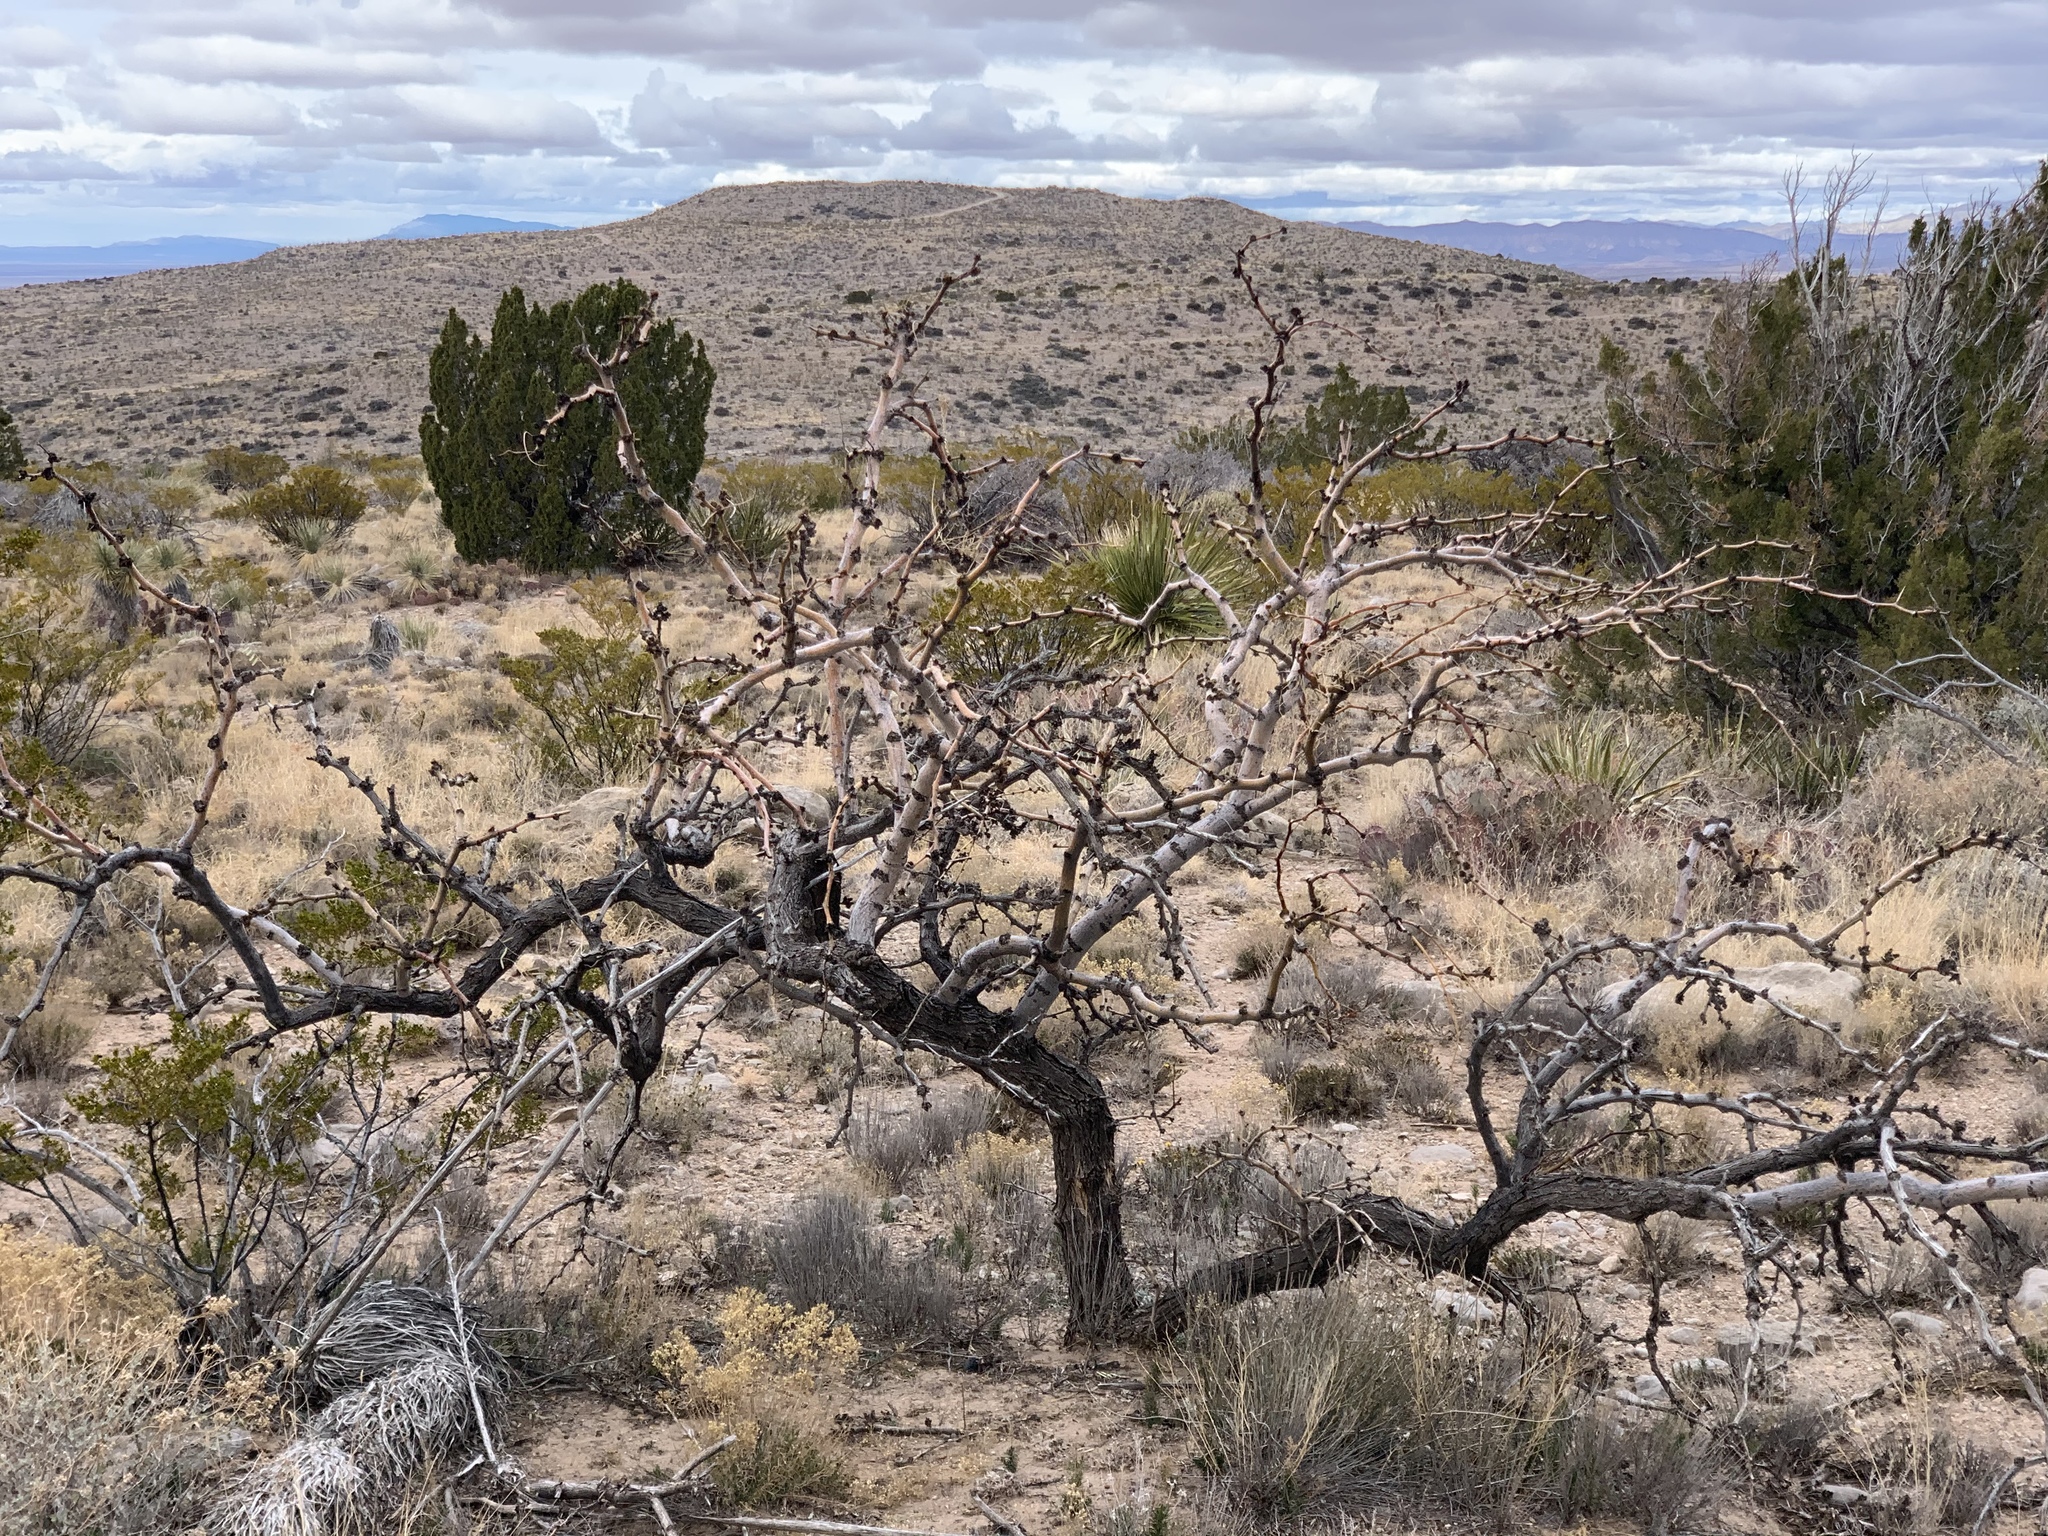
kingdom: Plantae
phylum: Tracheophyta
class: Magnoliopsida
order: Fabales
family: Fabaceae
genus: Prosopis
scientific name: Prosopis glandulosa
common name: Honey mesquite
